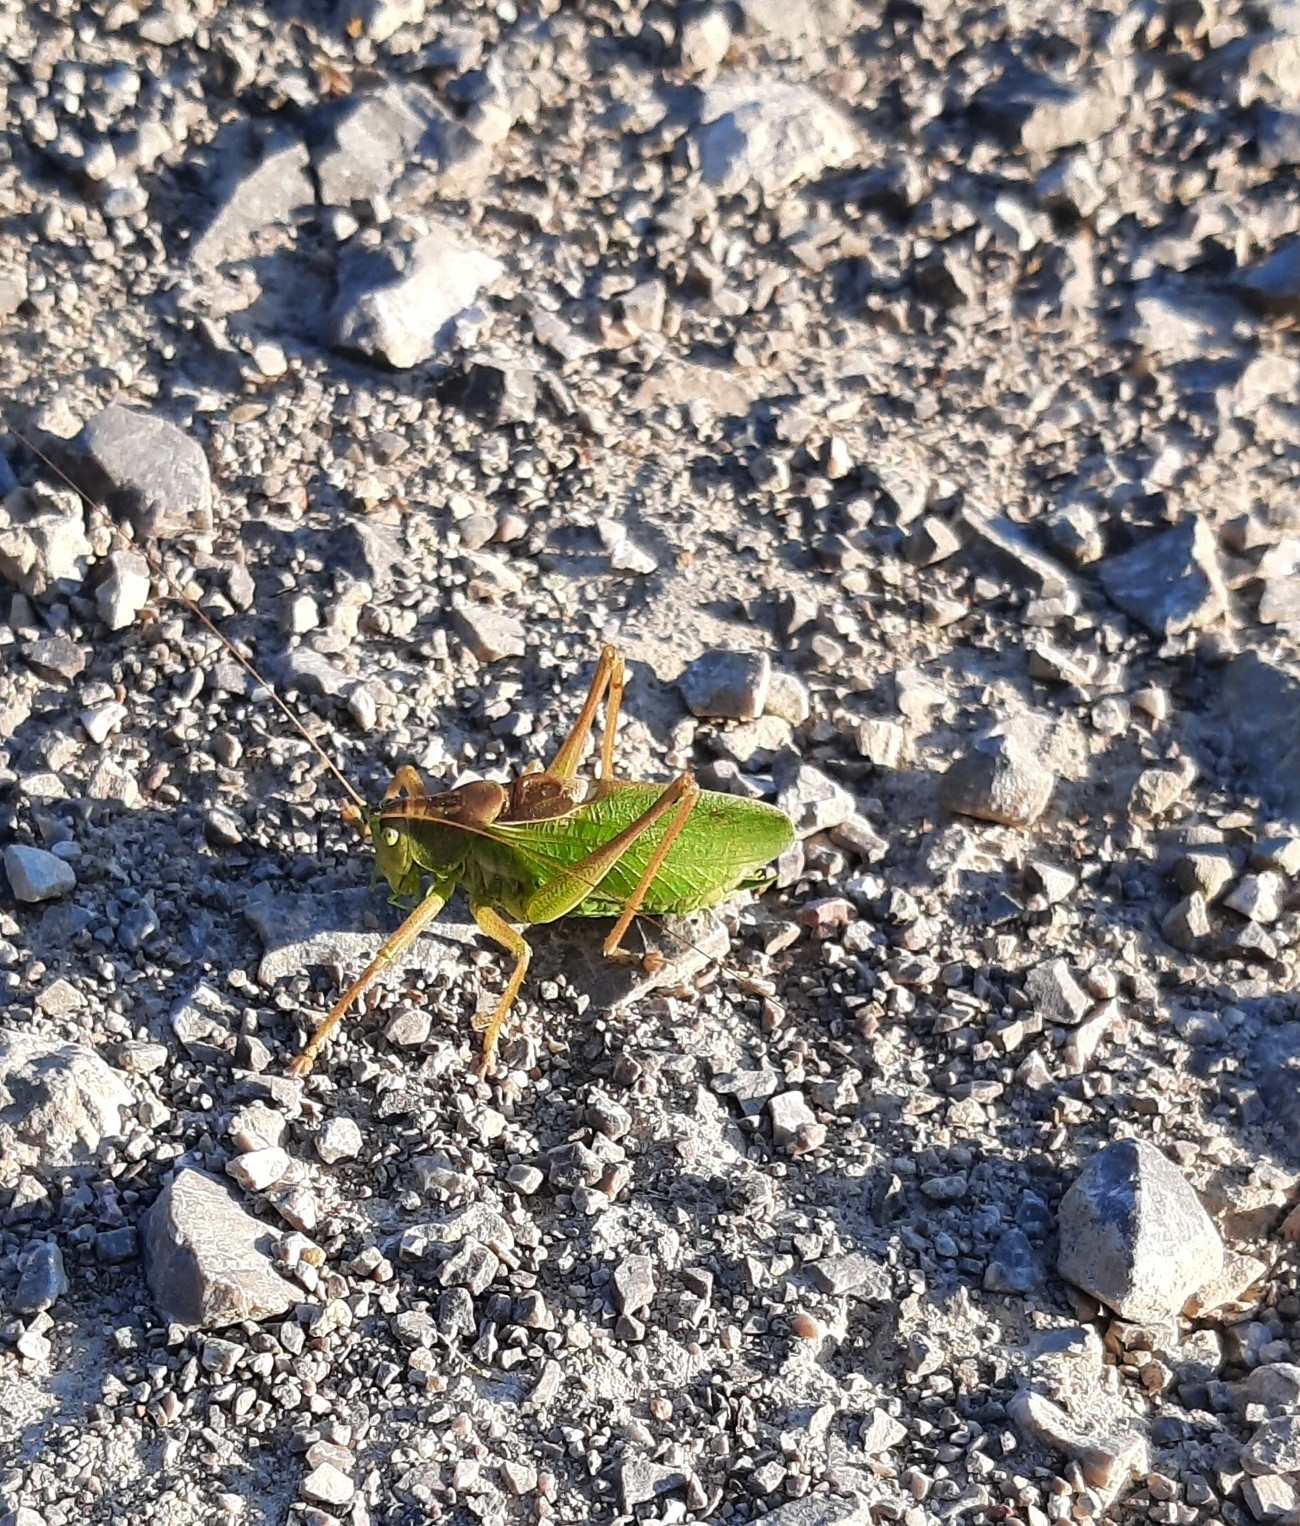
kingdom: Animalia
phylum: Arthropoda
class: Insecta
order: Orthoptera
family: Tettigoniidae
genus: Tettigonia
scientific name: Tettigonia cantans
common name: Upland green bush-cricket
